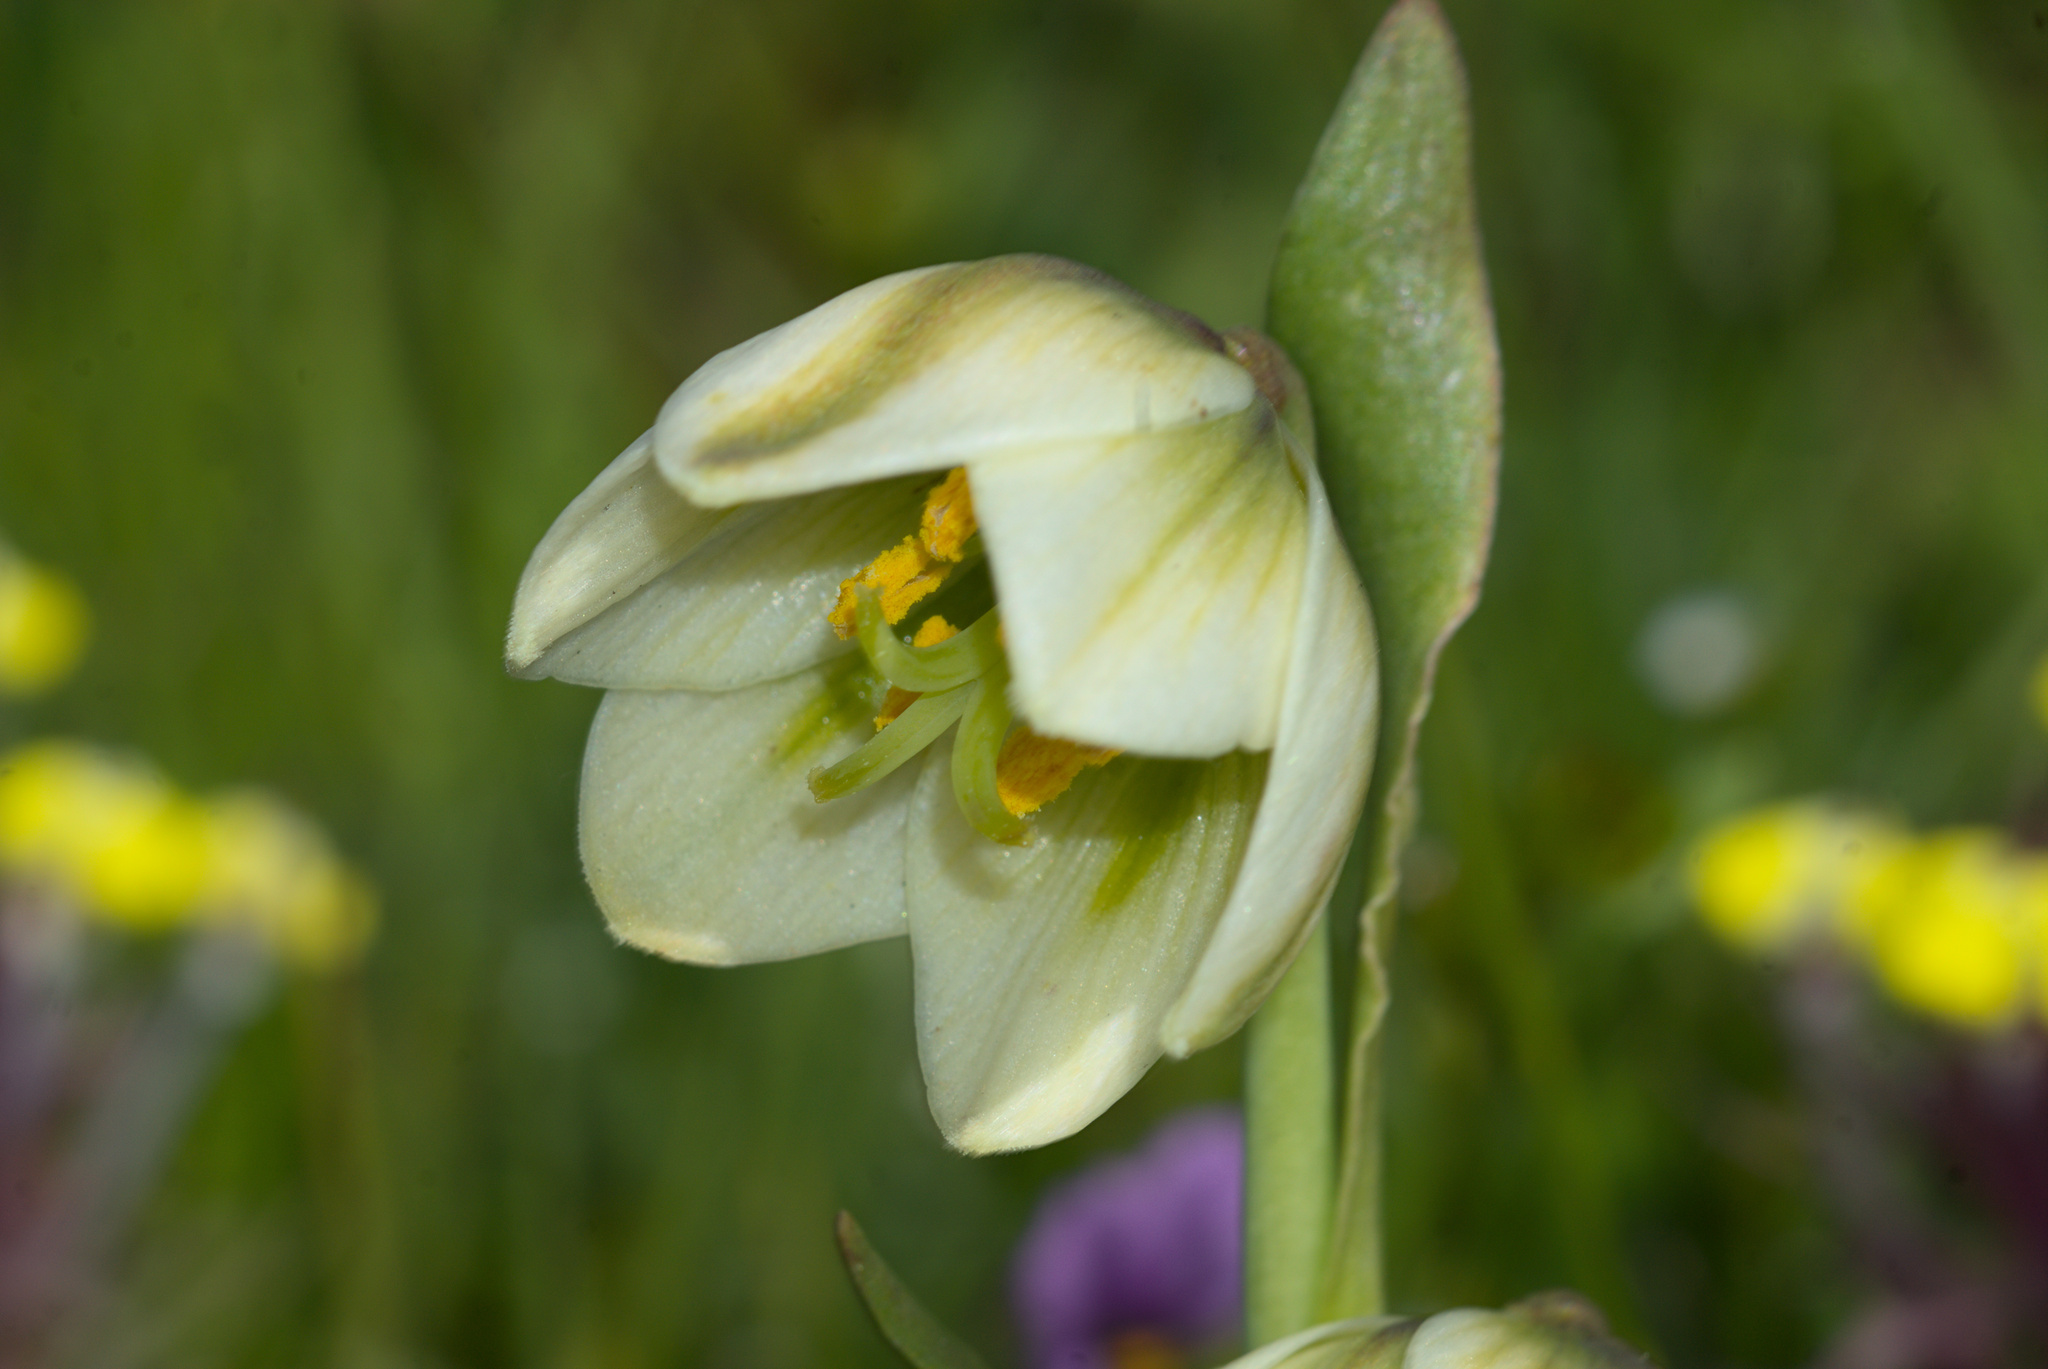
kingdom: Plantae
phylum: Tracheophyta
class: Liliopsida
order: Liliales
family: Liliaceae
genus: Fritillaria
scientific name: Fritillaria liliacea
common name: Fragrant fritillary
